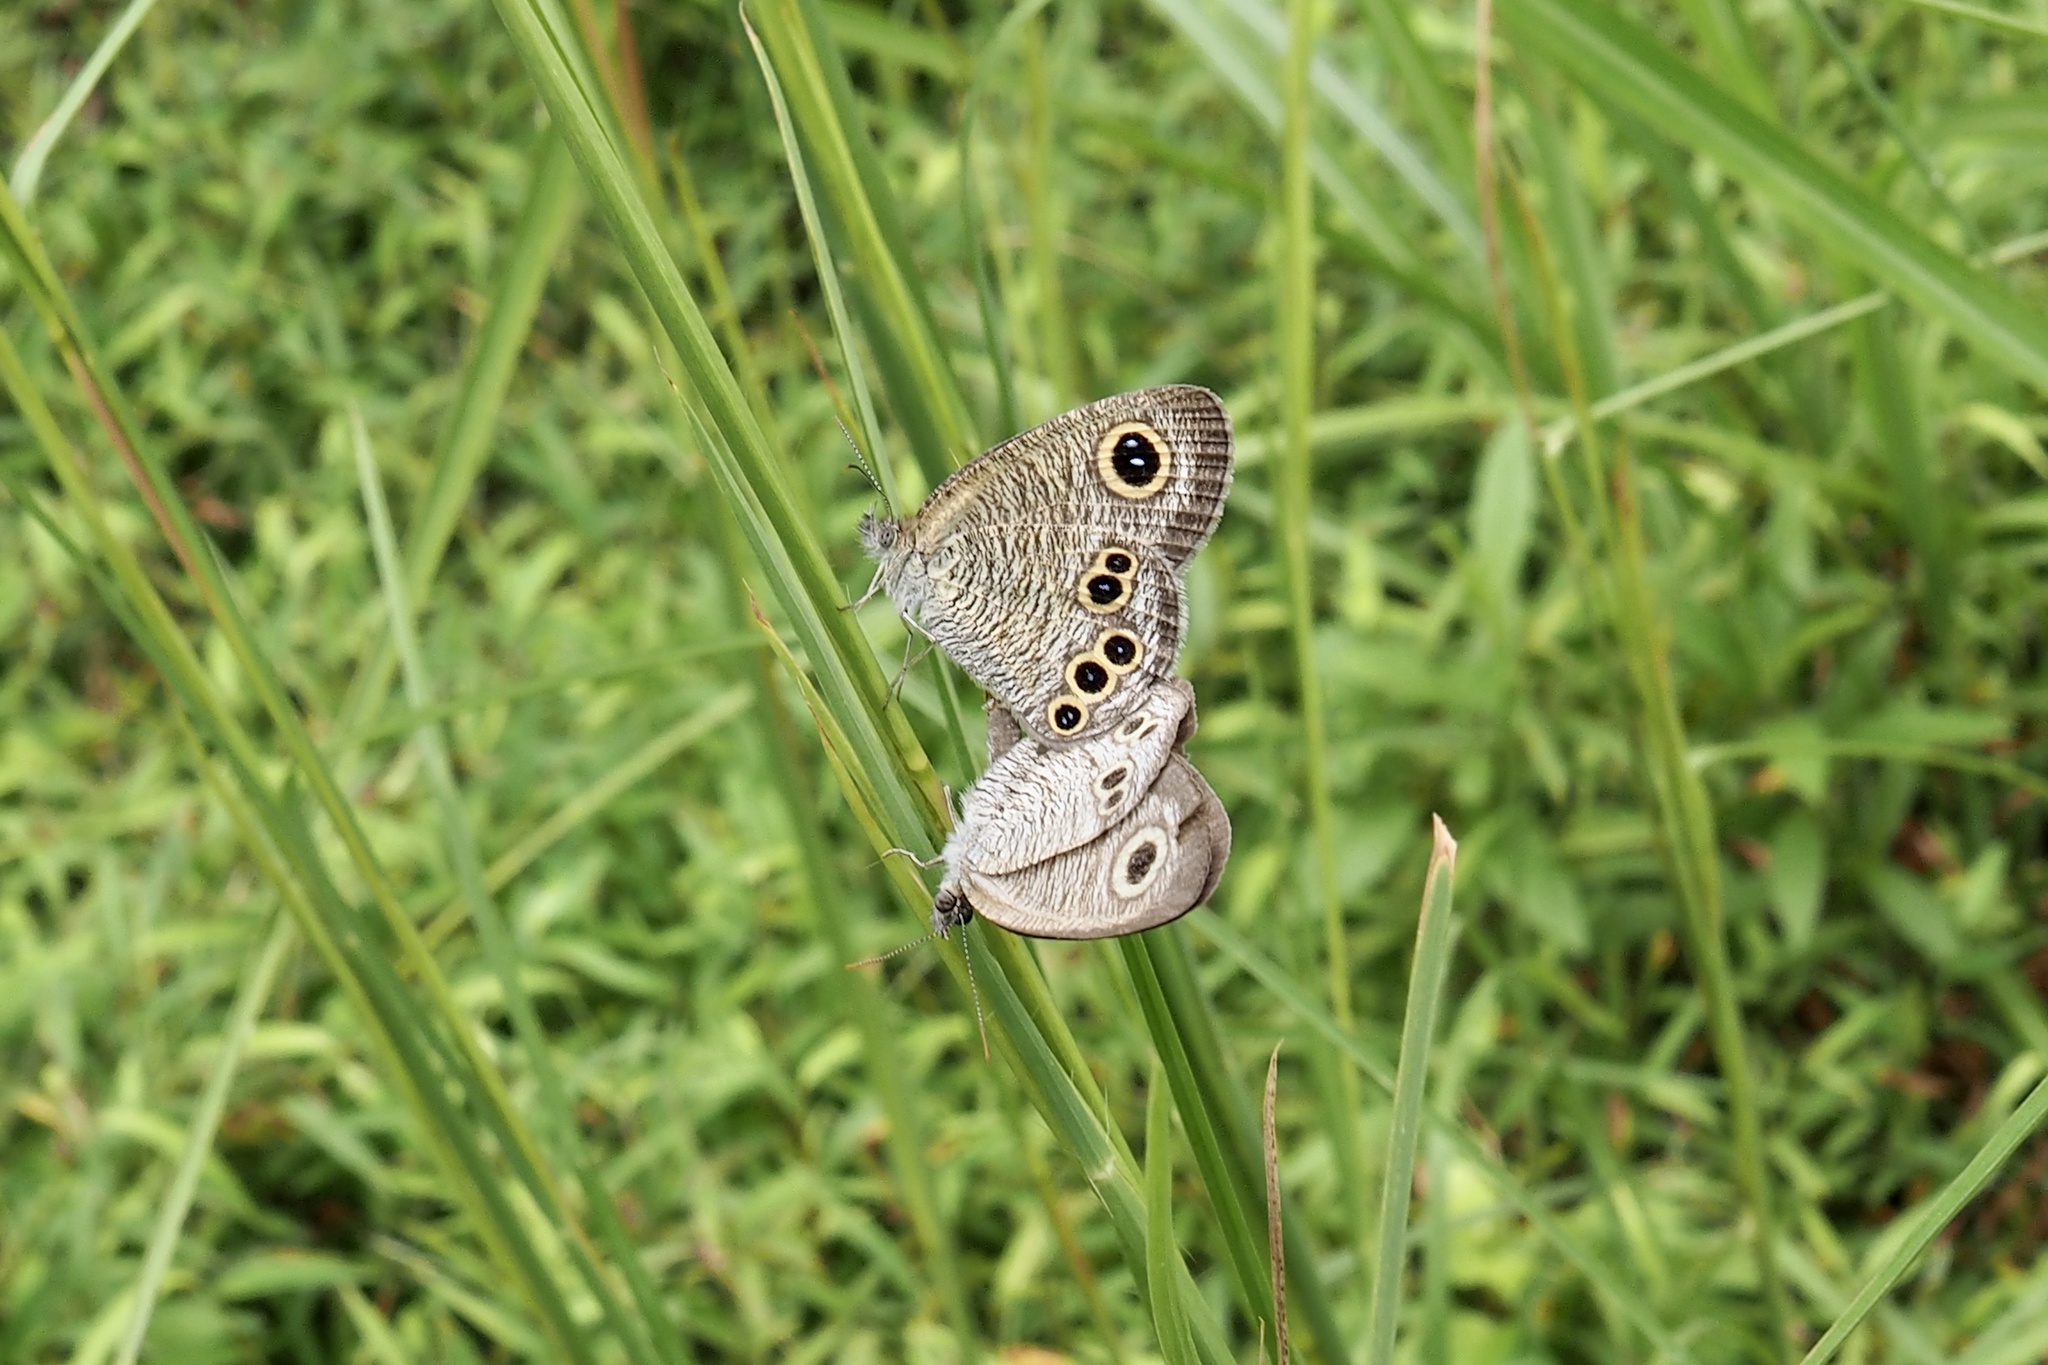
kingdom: Animalia
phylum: Arthropoda
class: Insecta
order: Lepidoptera
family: Nymphalidae
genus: Ypthima
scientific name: Ypthima argus
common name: Common fivering
